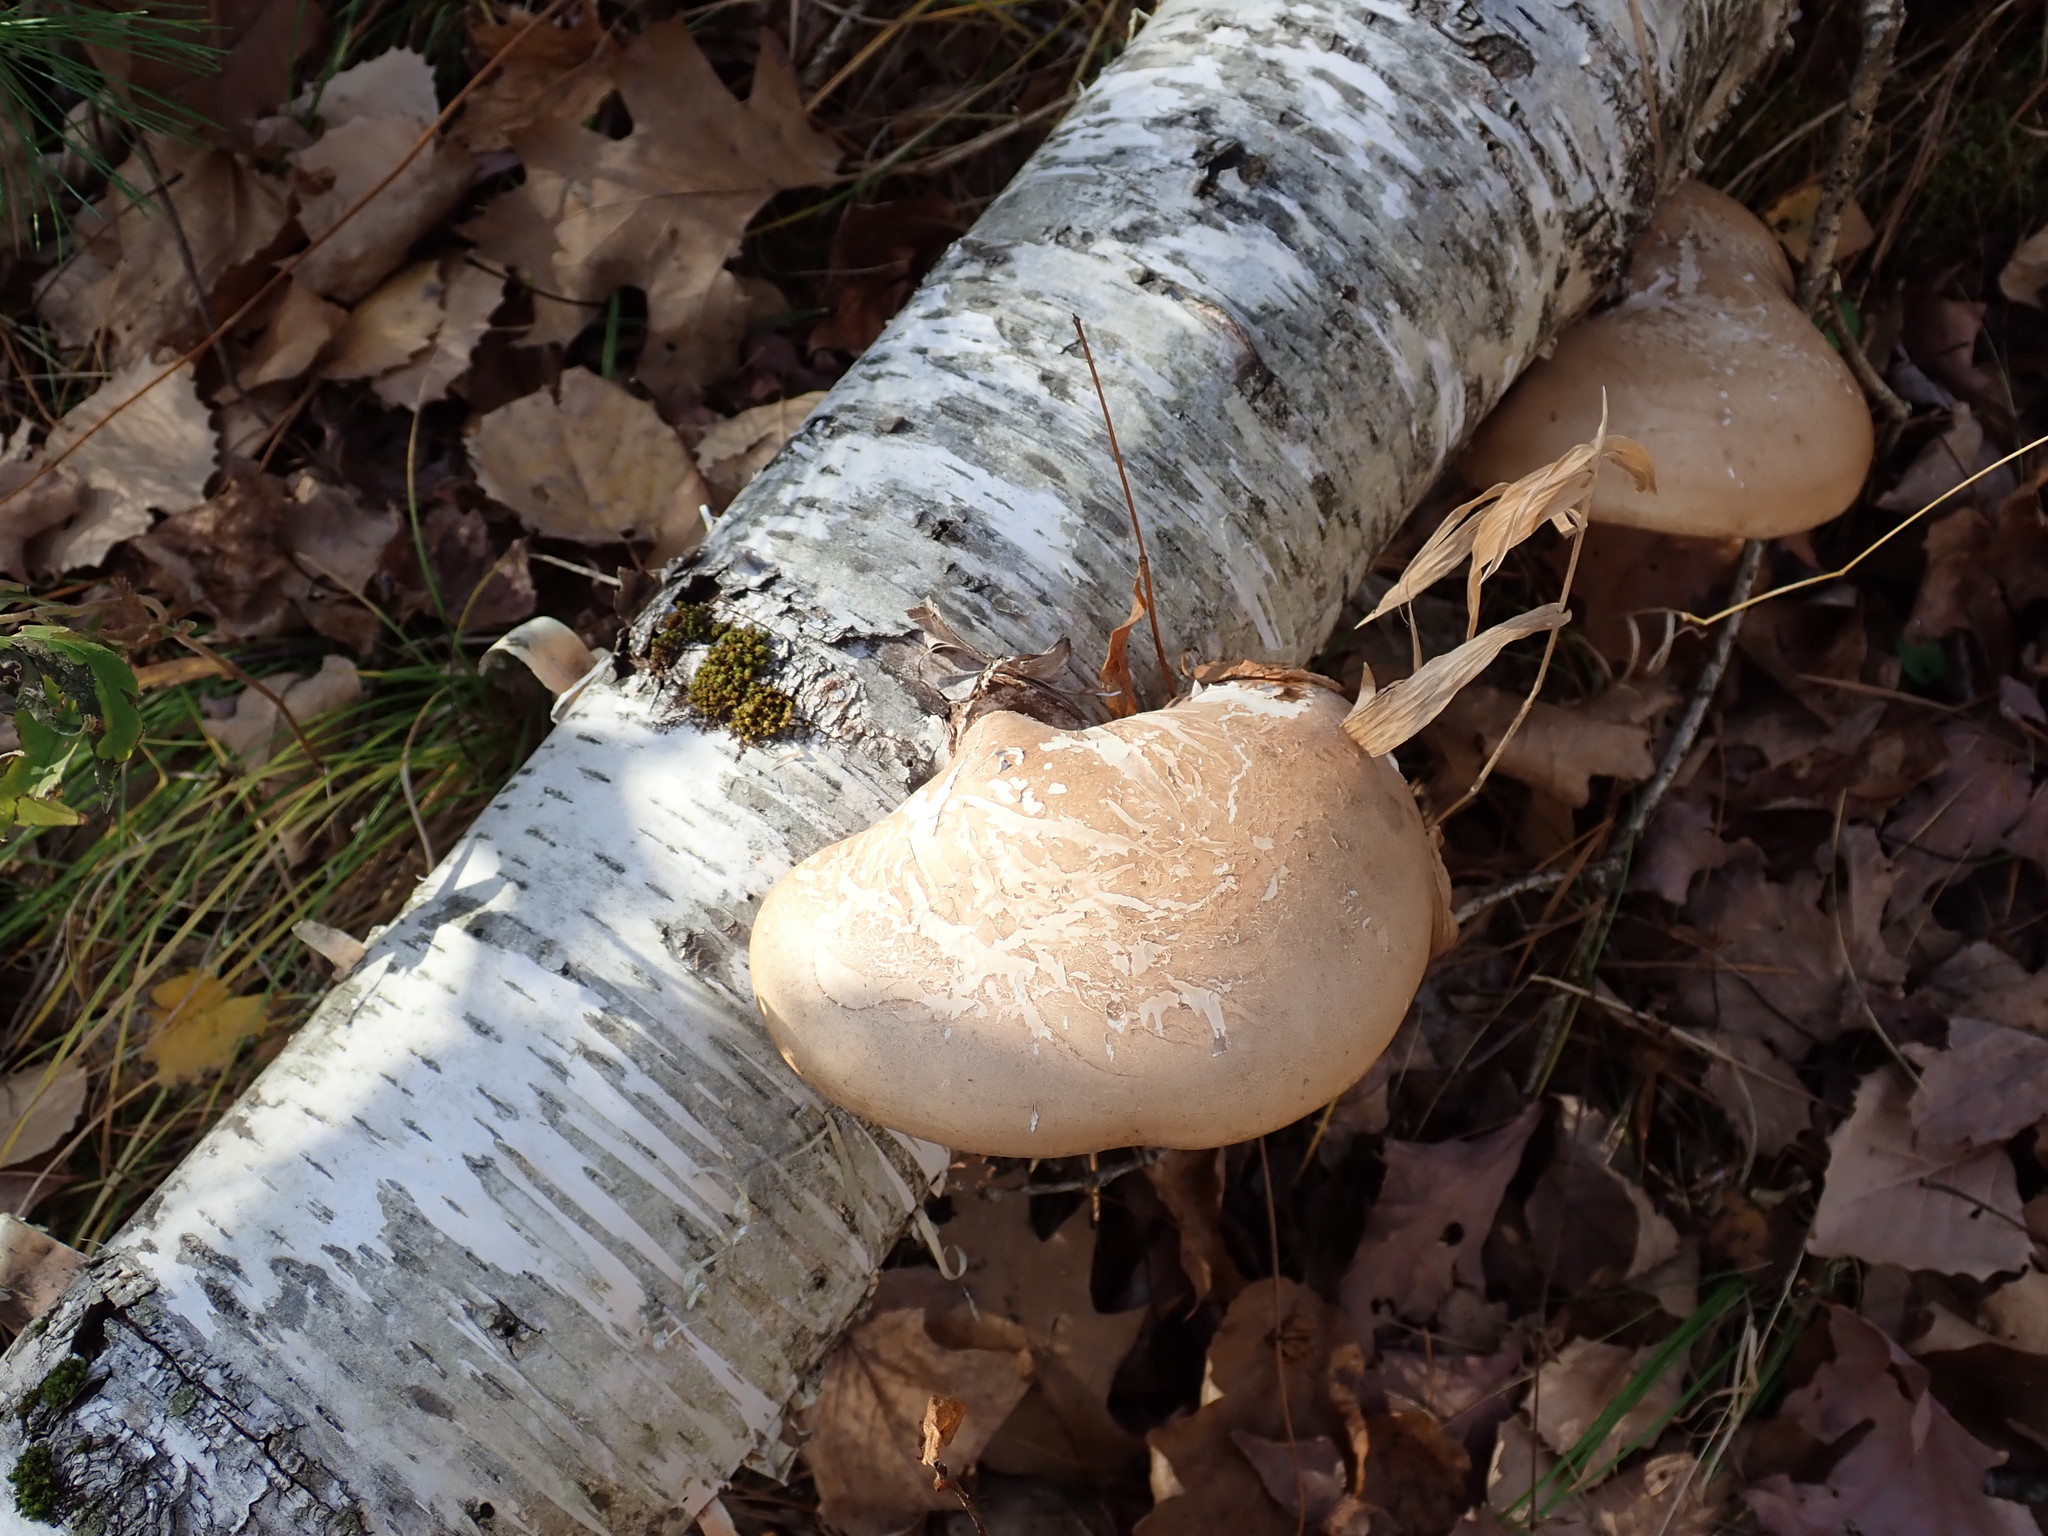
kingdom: Fungi
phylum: Basidiomycota
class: Agaricomycetes
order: Polyporales
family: Fomitopsidaceae
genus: Fomitopsis
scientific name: Fomitopsis betulina
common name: Birch polypore
